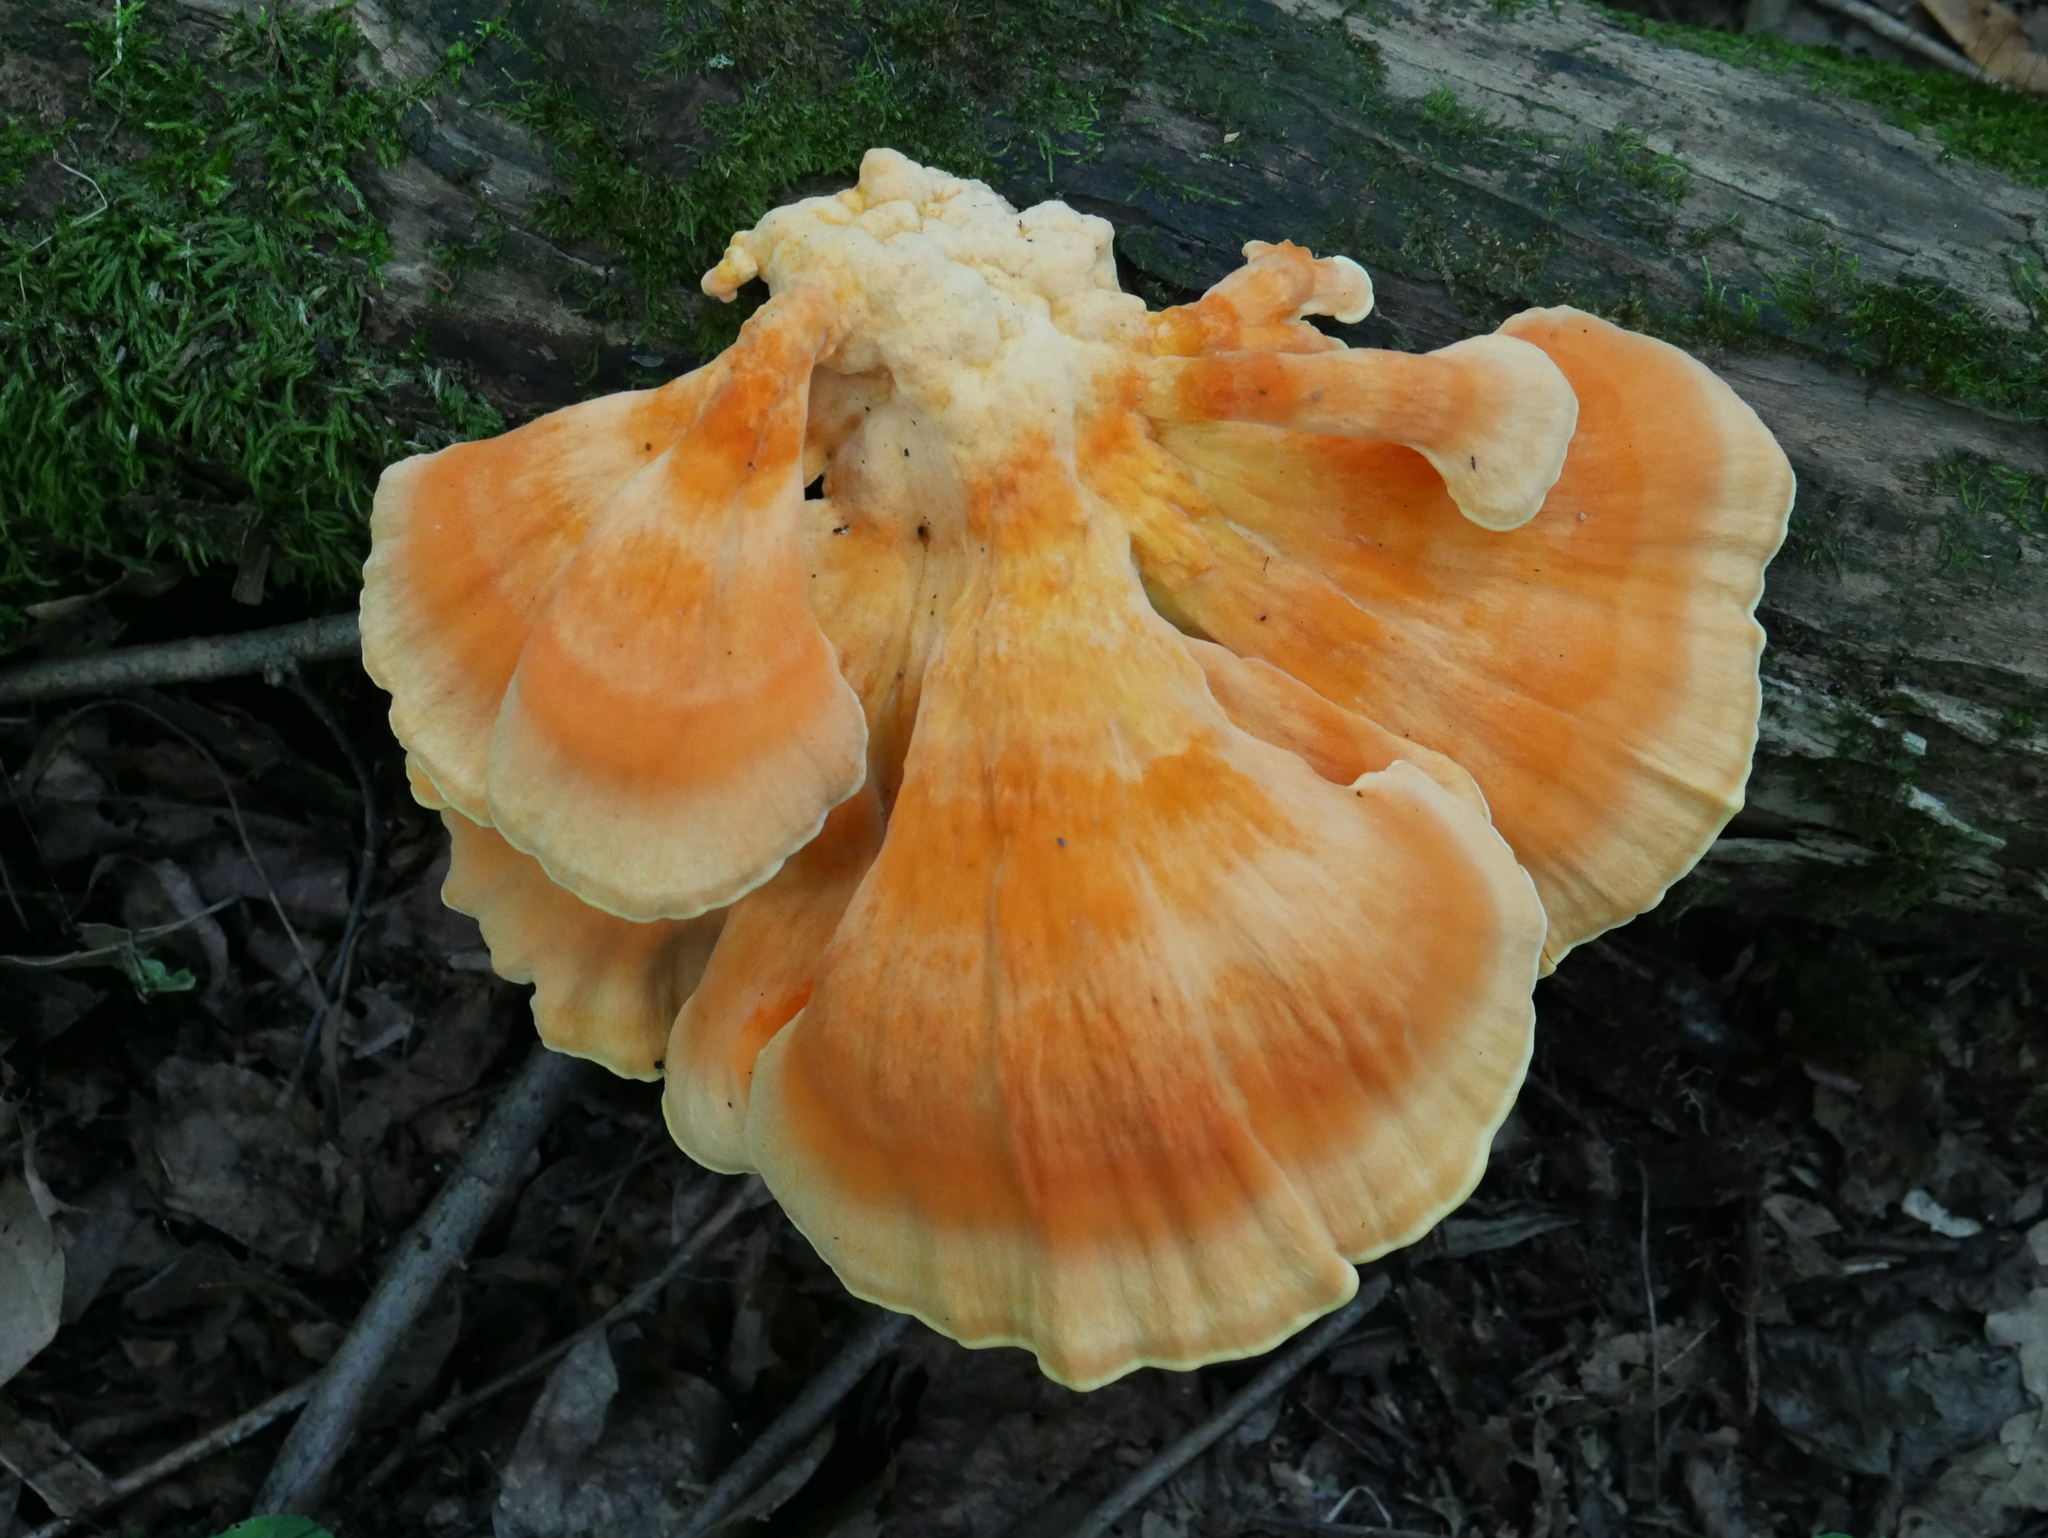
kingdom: Fungi
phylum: Basidiomycota
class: Agaricomycetes
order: Polyporales
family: Laetiporaceae
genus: Laetiporus
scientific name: Laetiporus sulphureus
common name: Chicken of the woods
